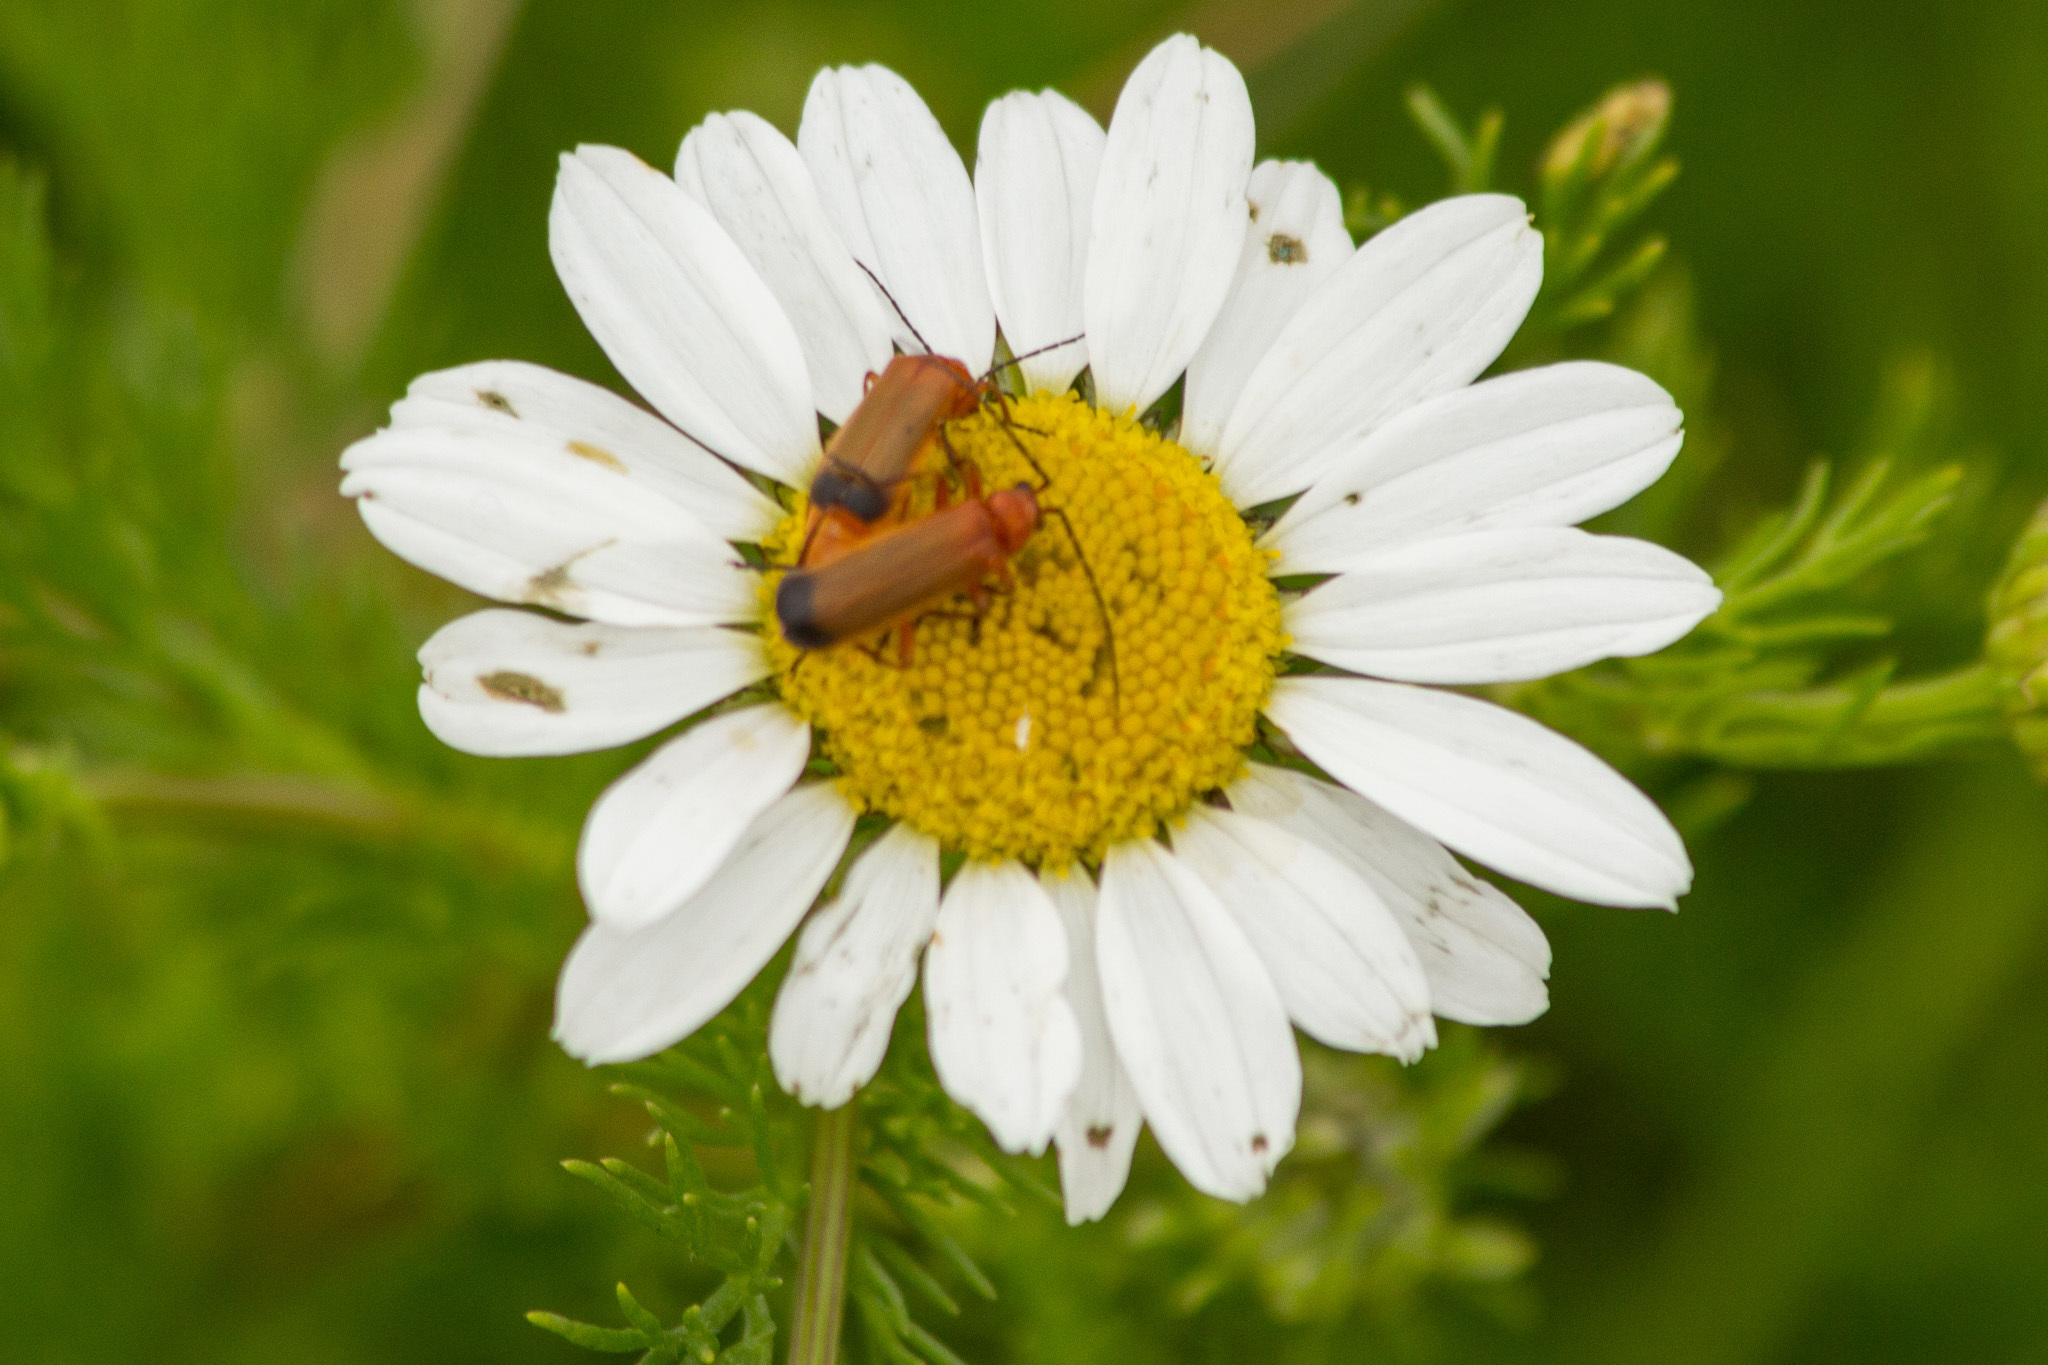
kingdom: Animalia
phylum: Arthropoda
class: Insecta
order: Coleoptera
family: Cantharidae
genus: Rhagonycha
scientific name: Rhagonycha fulva
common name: Common red soldier beetle
